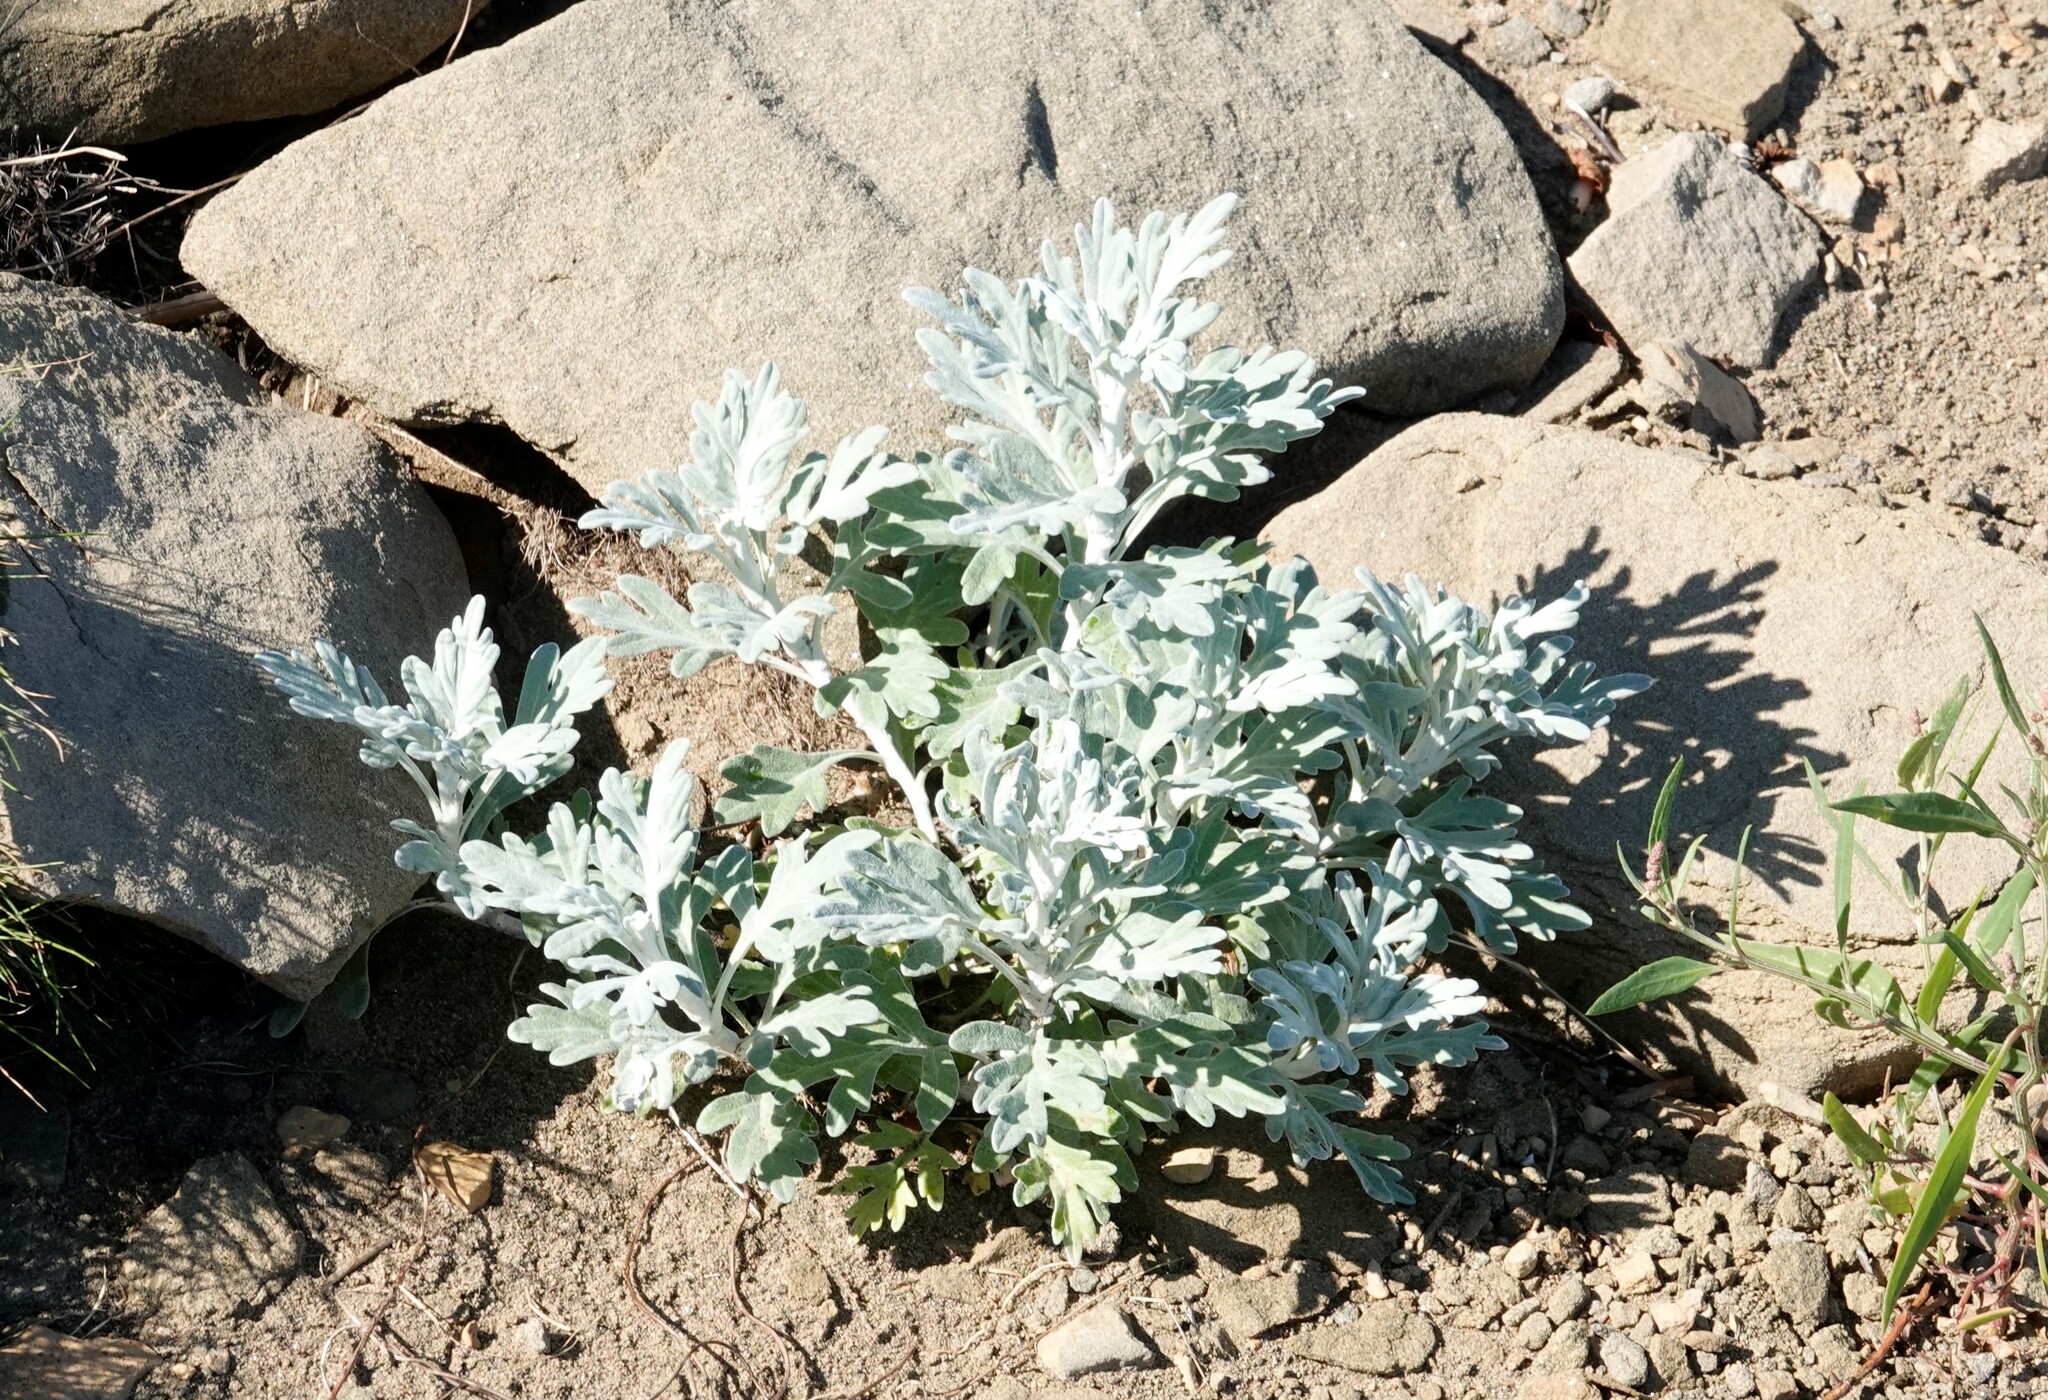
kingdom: Plantae
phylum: Tracheophyta
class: Magnoliopsida
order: Asterales
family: Asteraceae
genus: Artemisia
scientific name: Artemisia stelleriana
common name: Beach wormwood
